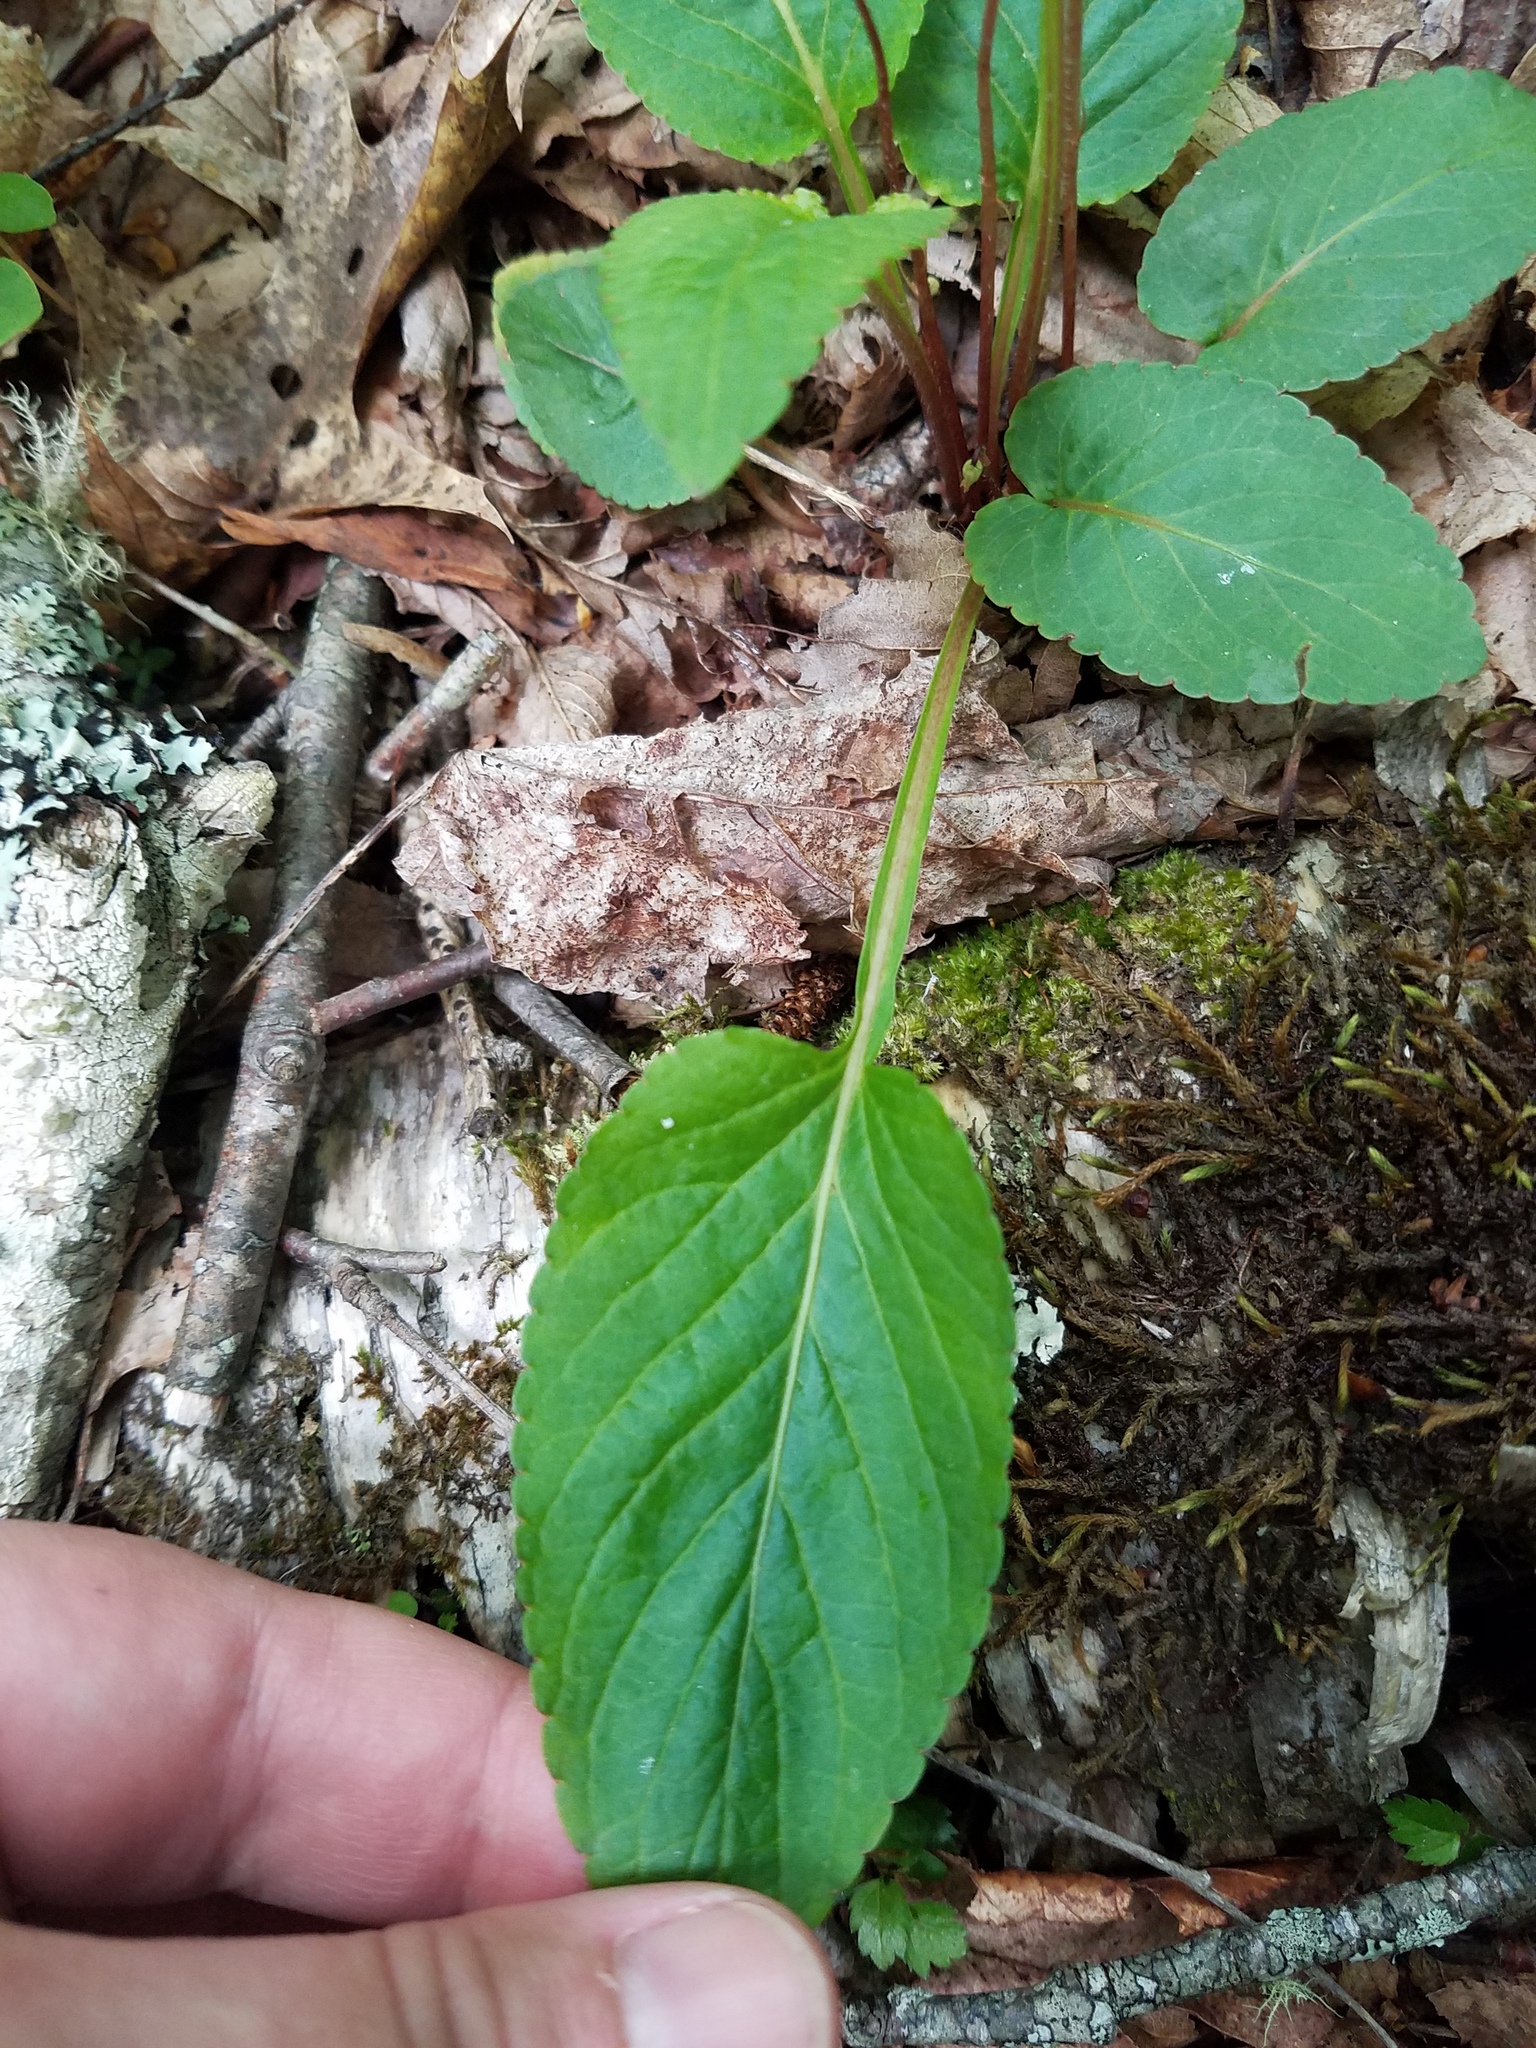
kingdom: Plantae
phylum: Tracheophyta
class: Magnoliopsida
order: Malpighiales
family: Violaceae
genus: Viola
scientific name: Viola primulifolia
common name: Primrose-leaf violet
